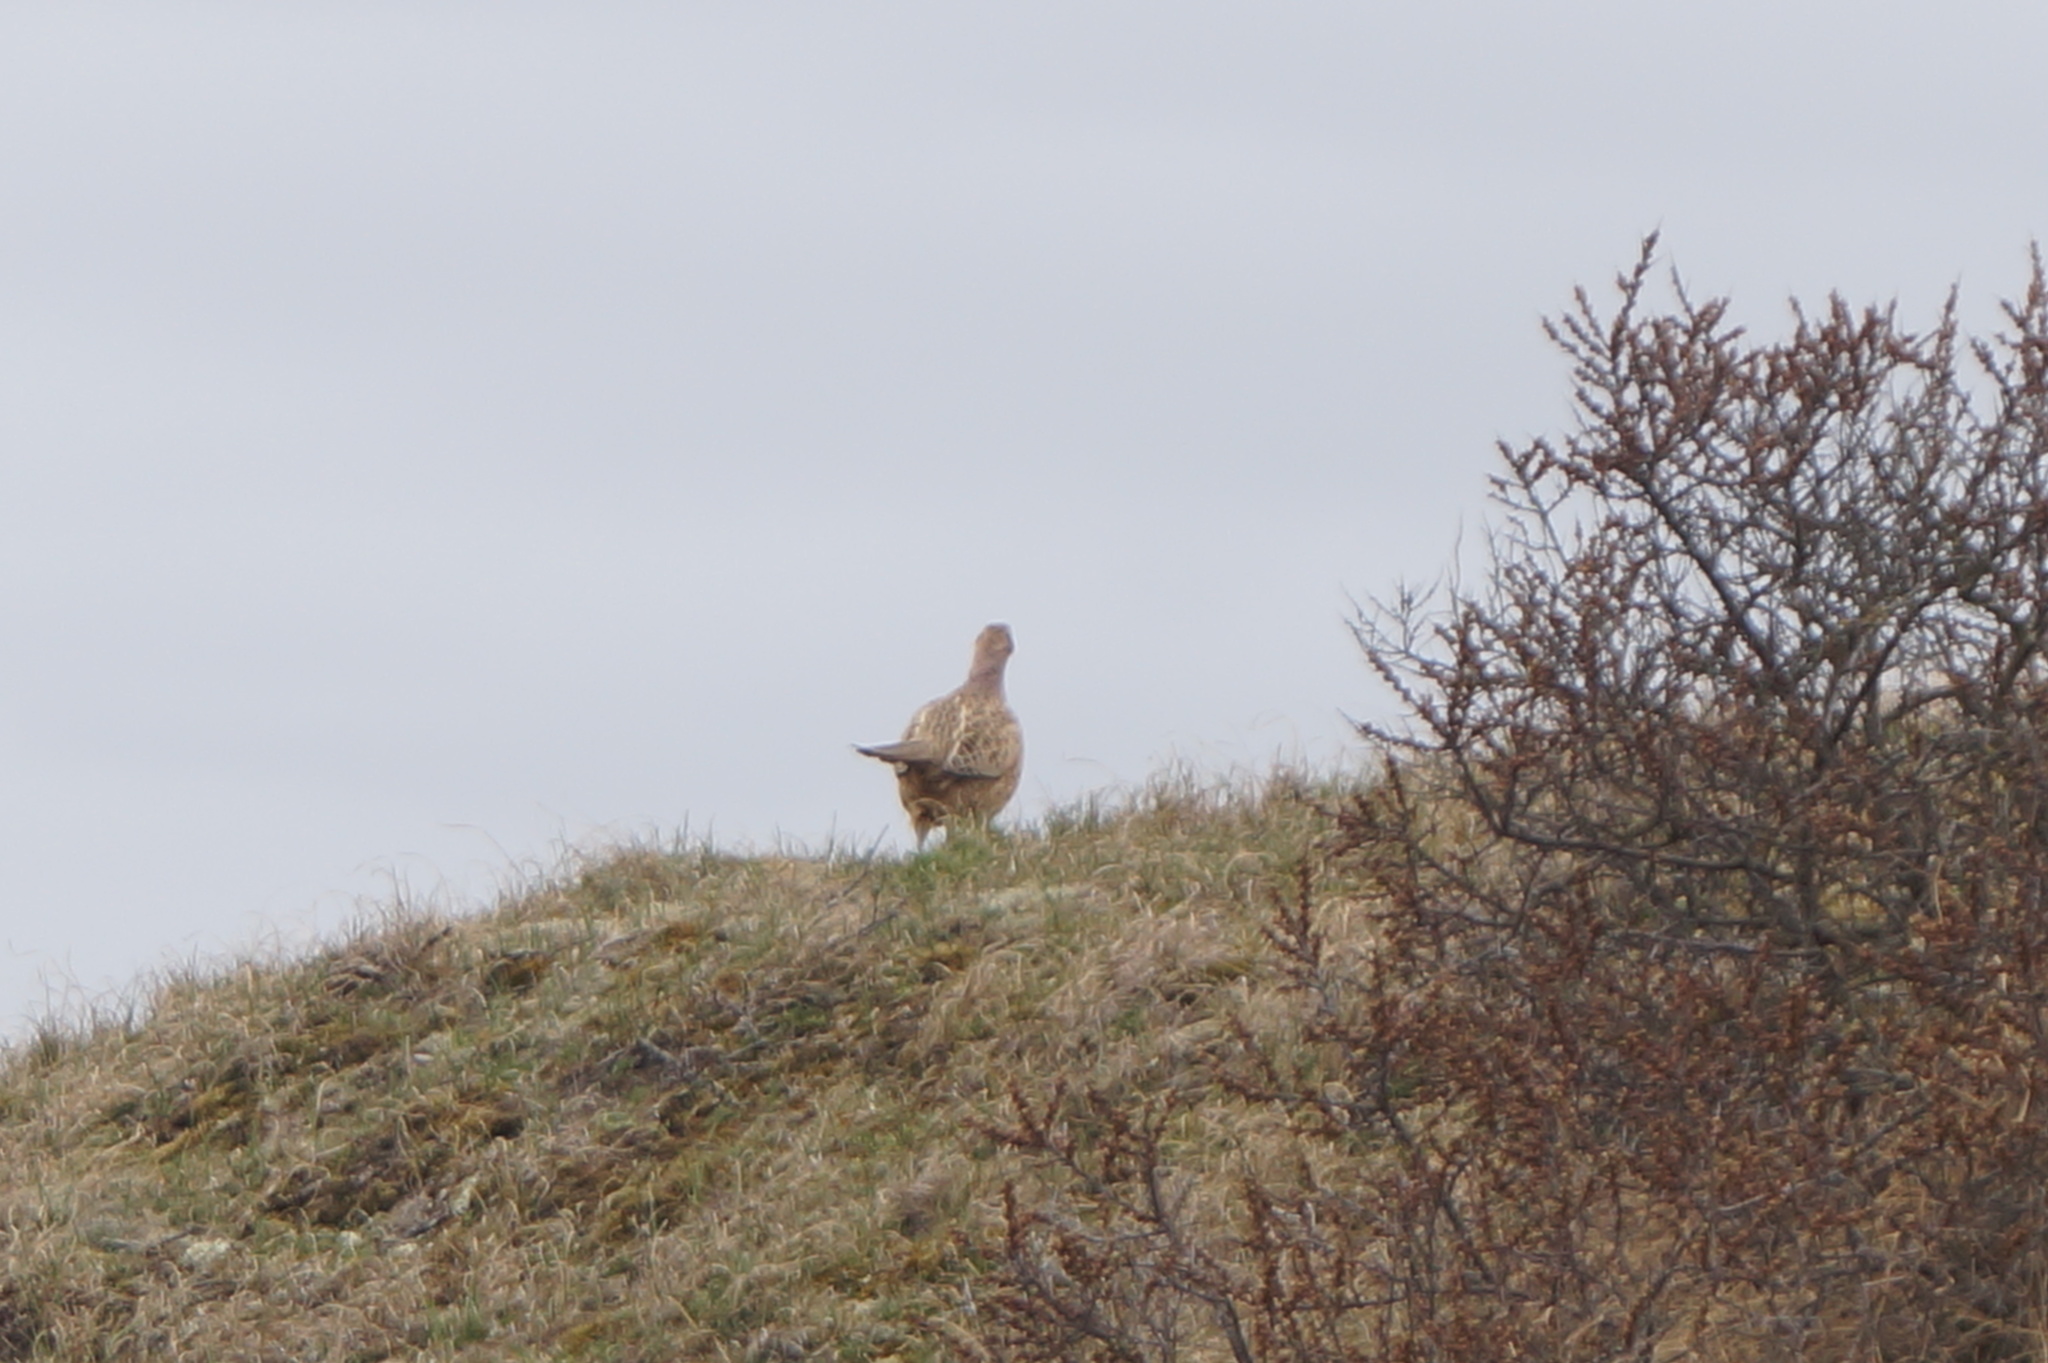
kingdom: Animalia
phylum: Chordata
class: Aves
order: Galliformes
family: Phasianidae
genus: Phasianus
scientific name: Phasianus colchicus
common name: Common pheasant
